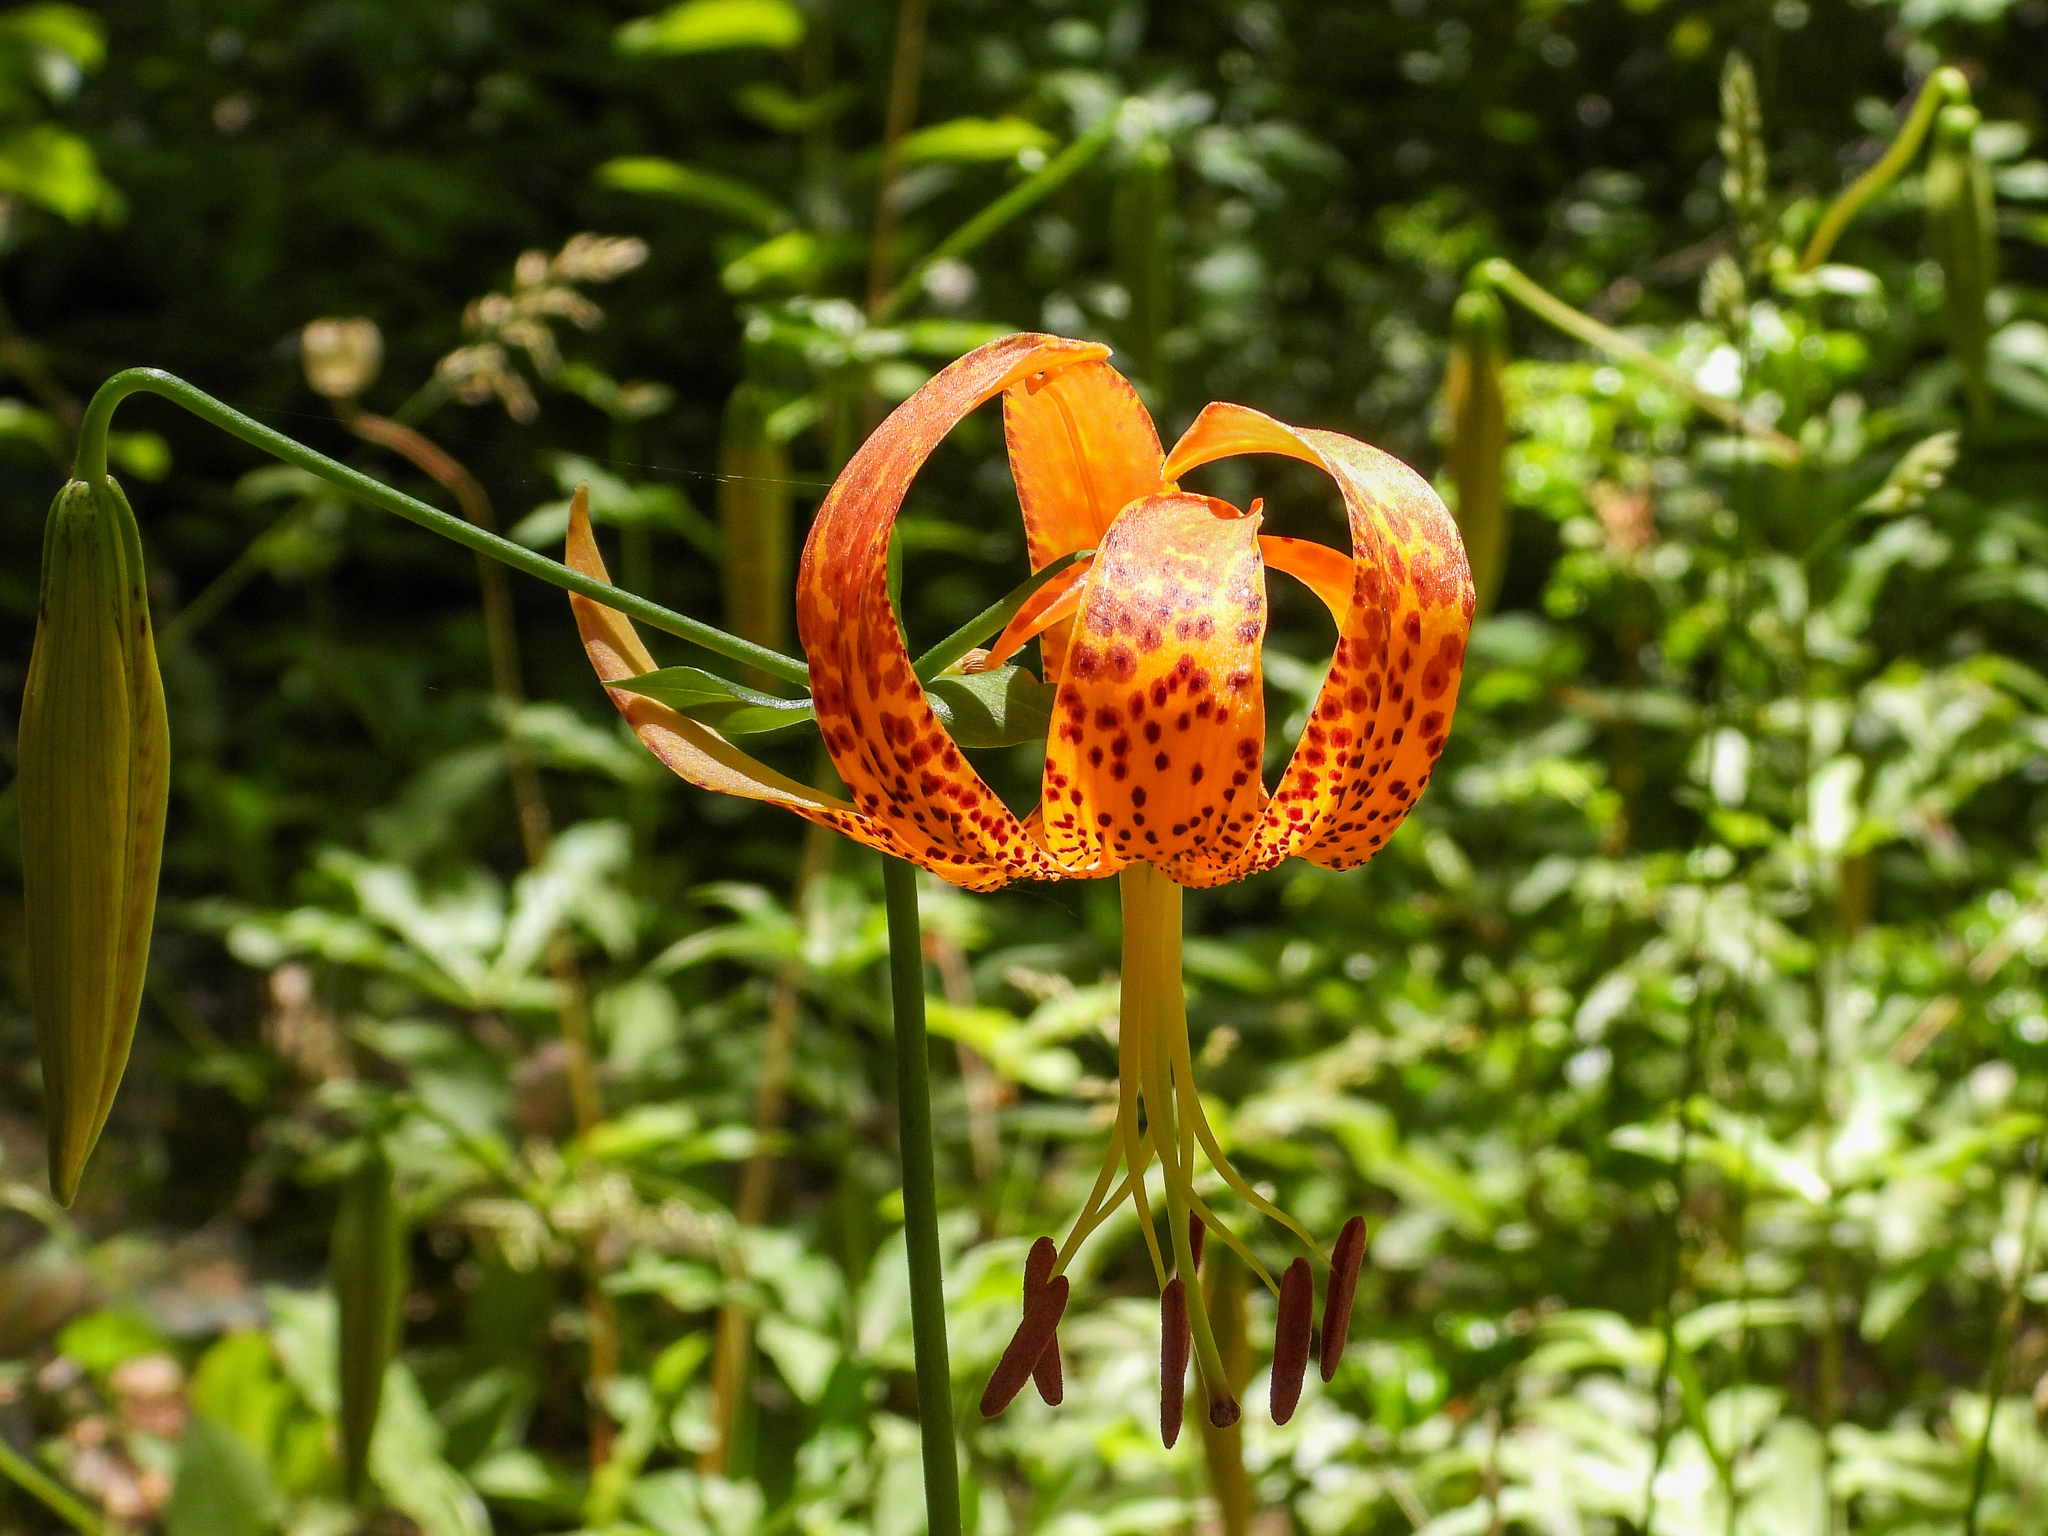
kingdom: Plantae
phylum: Tracheophyta
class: Liliopsida
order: Liliales
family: Liliaceae
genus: Lilium
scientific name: Lilium humboldtii
